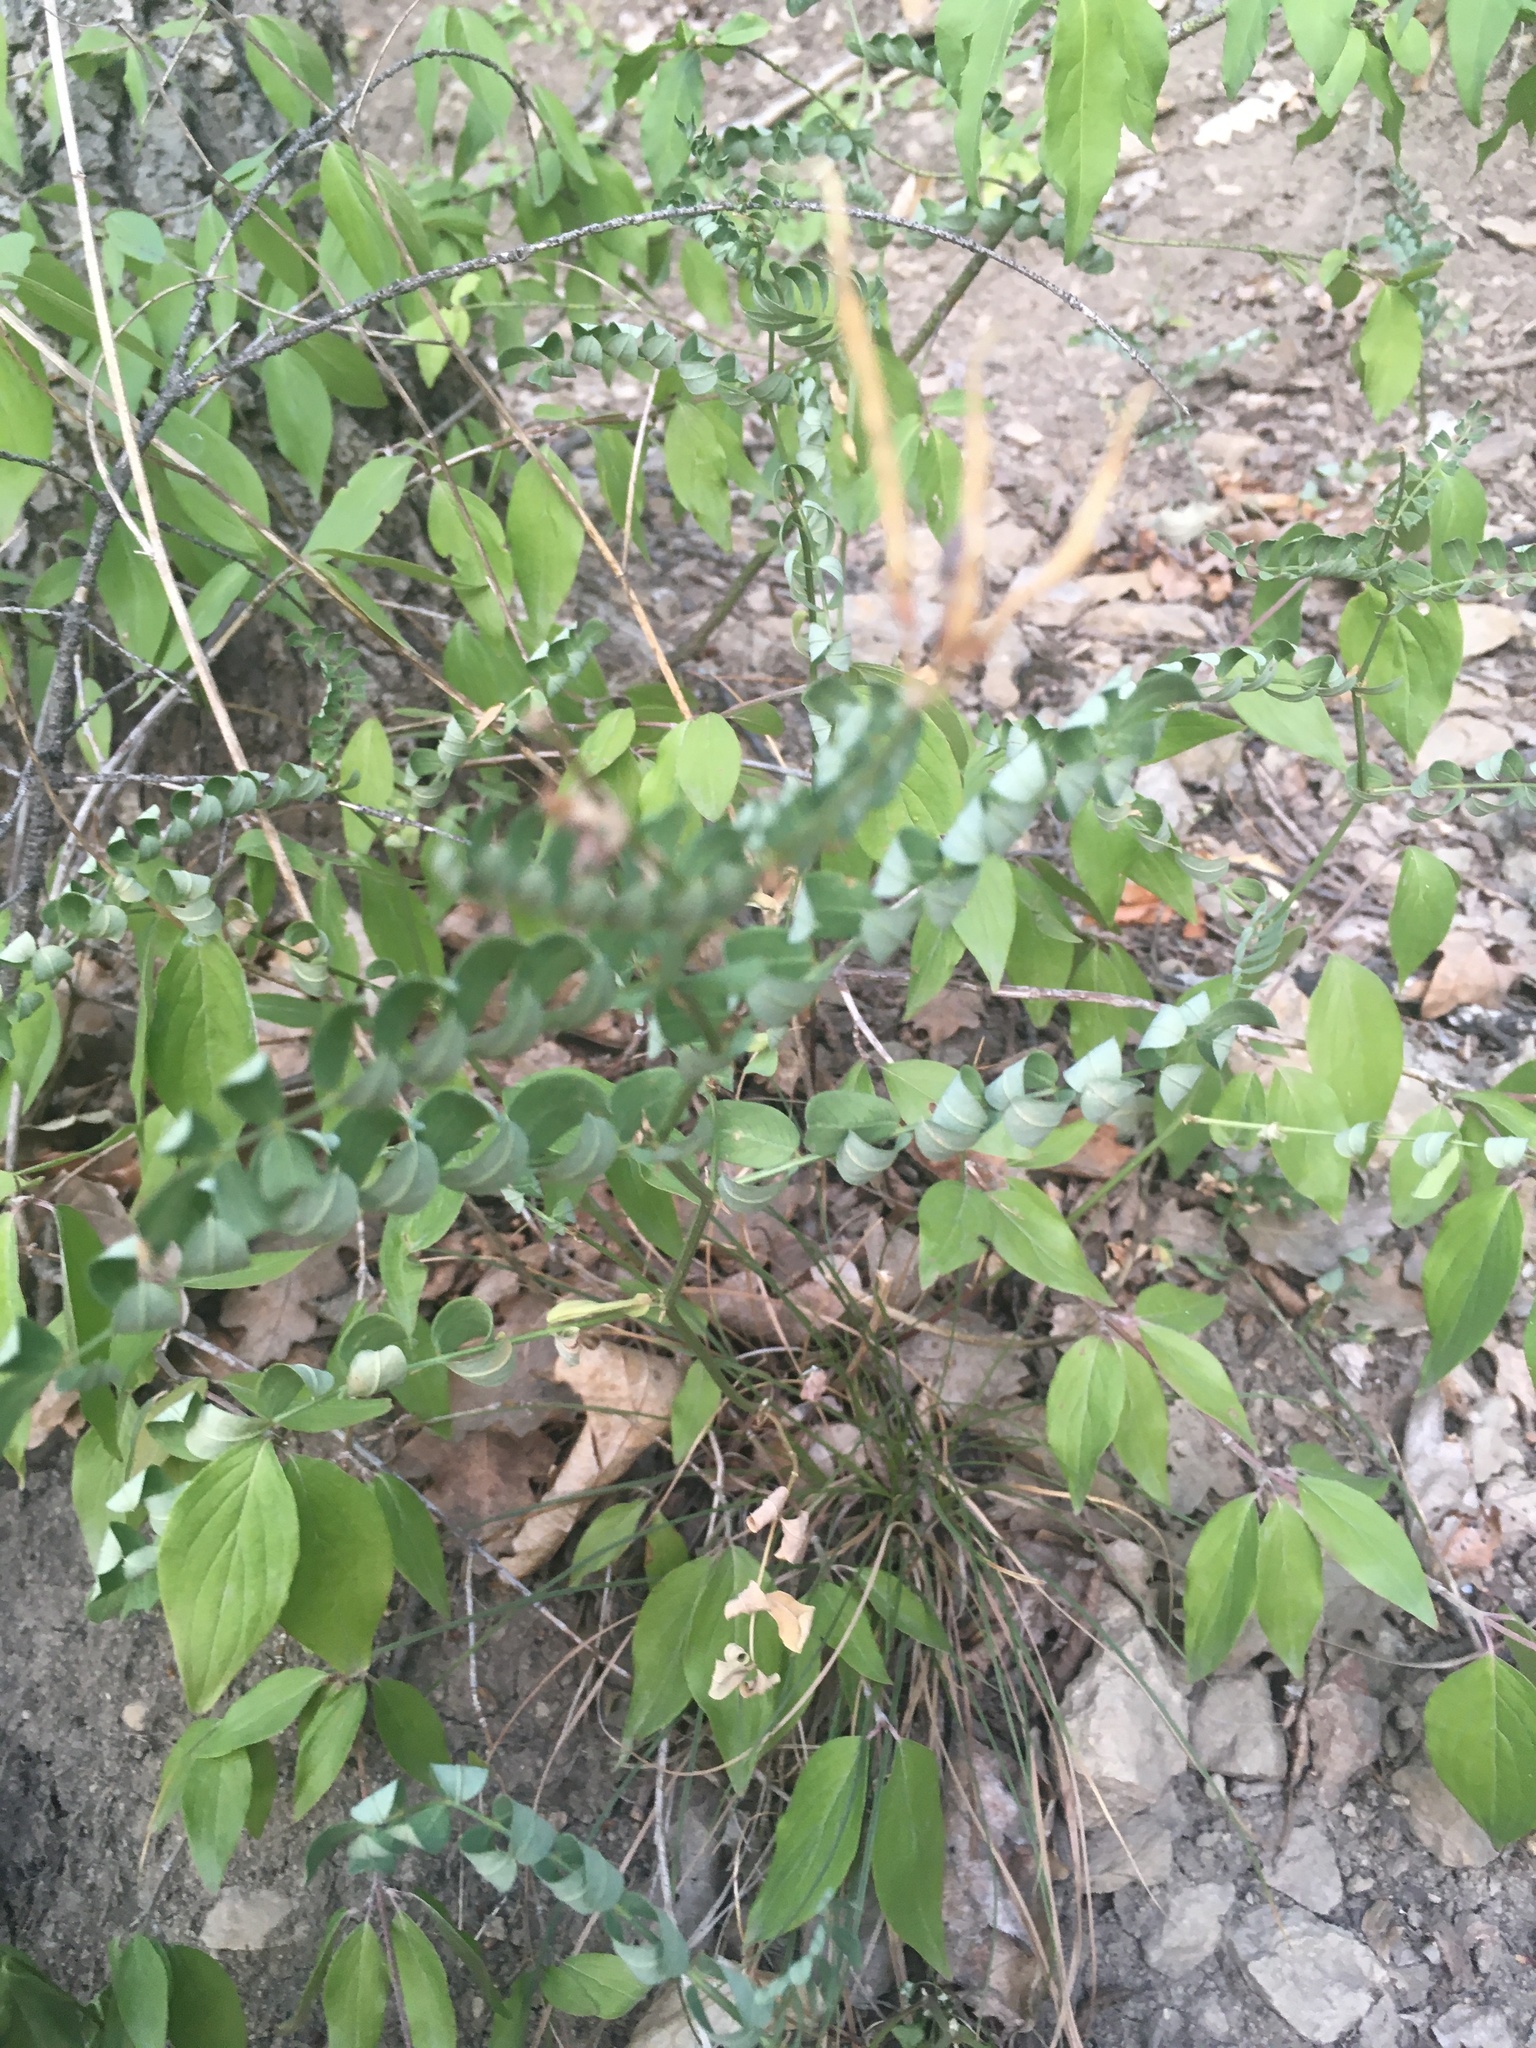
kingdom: Plantae
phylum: Tracheophyta
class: Magnoliopsida
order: Fabales
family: Fabaceae
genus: Coronilla
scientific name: Coronilla varia
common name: Crownvetch
